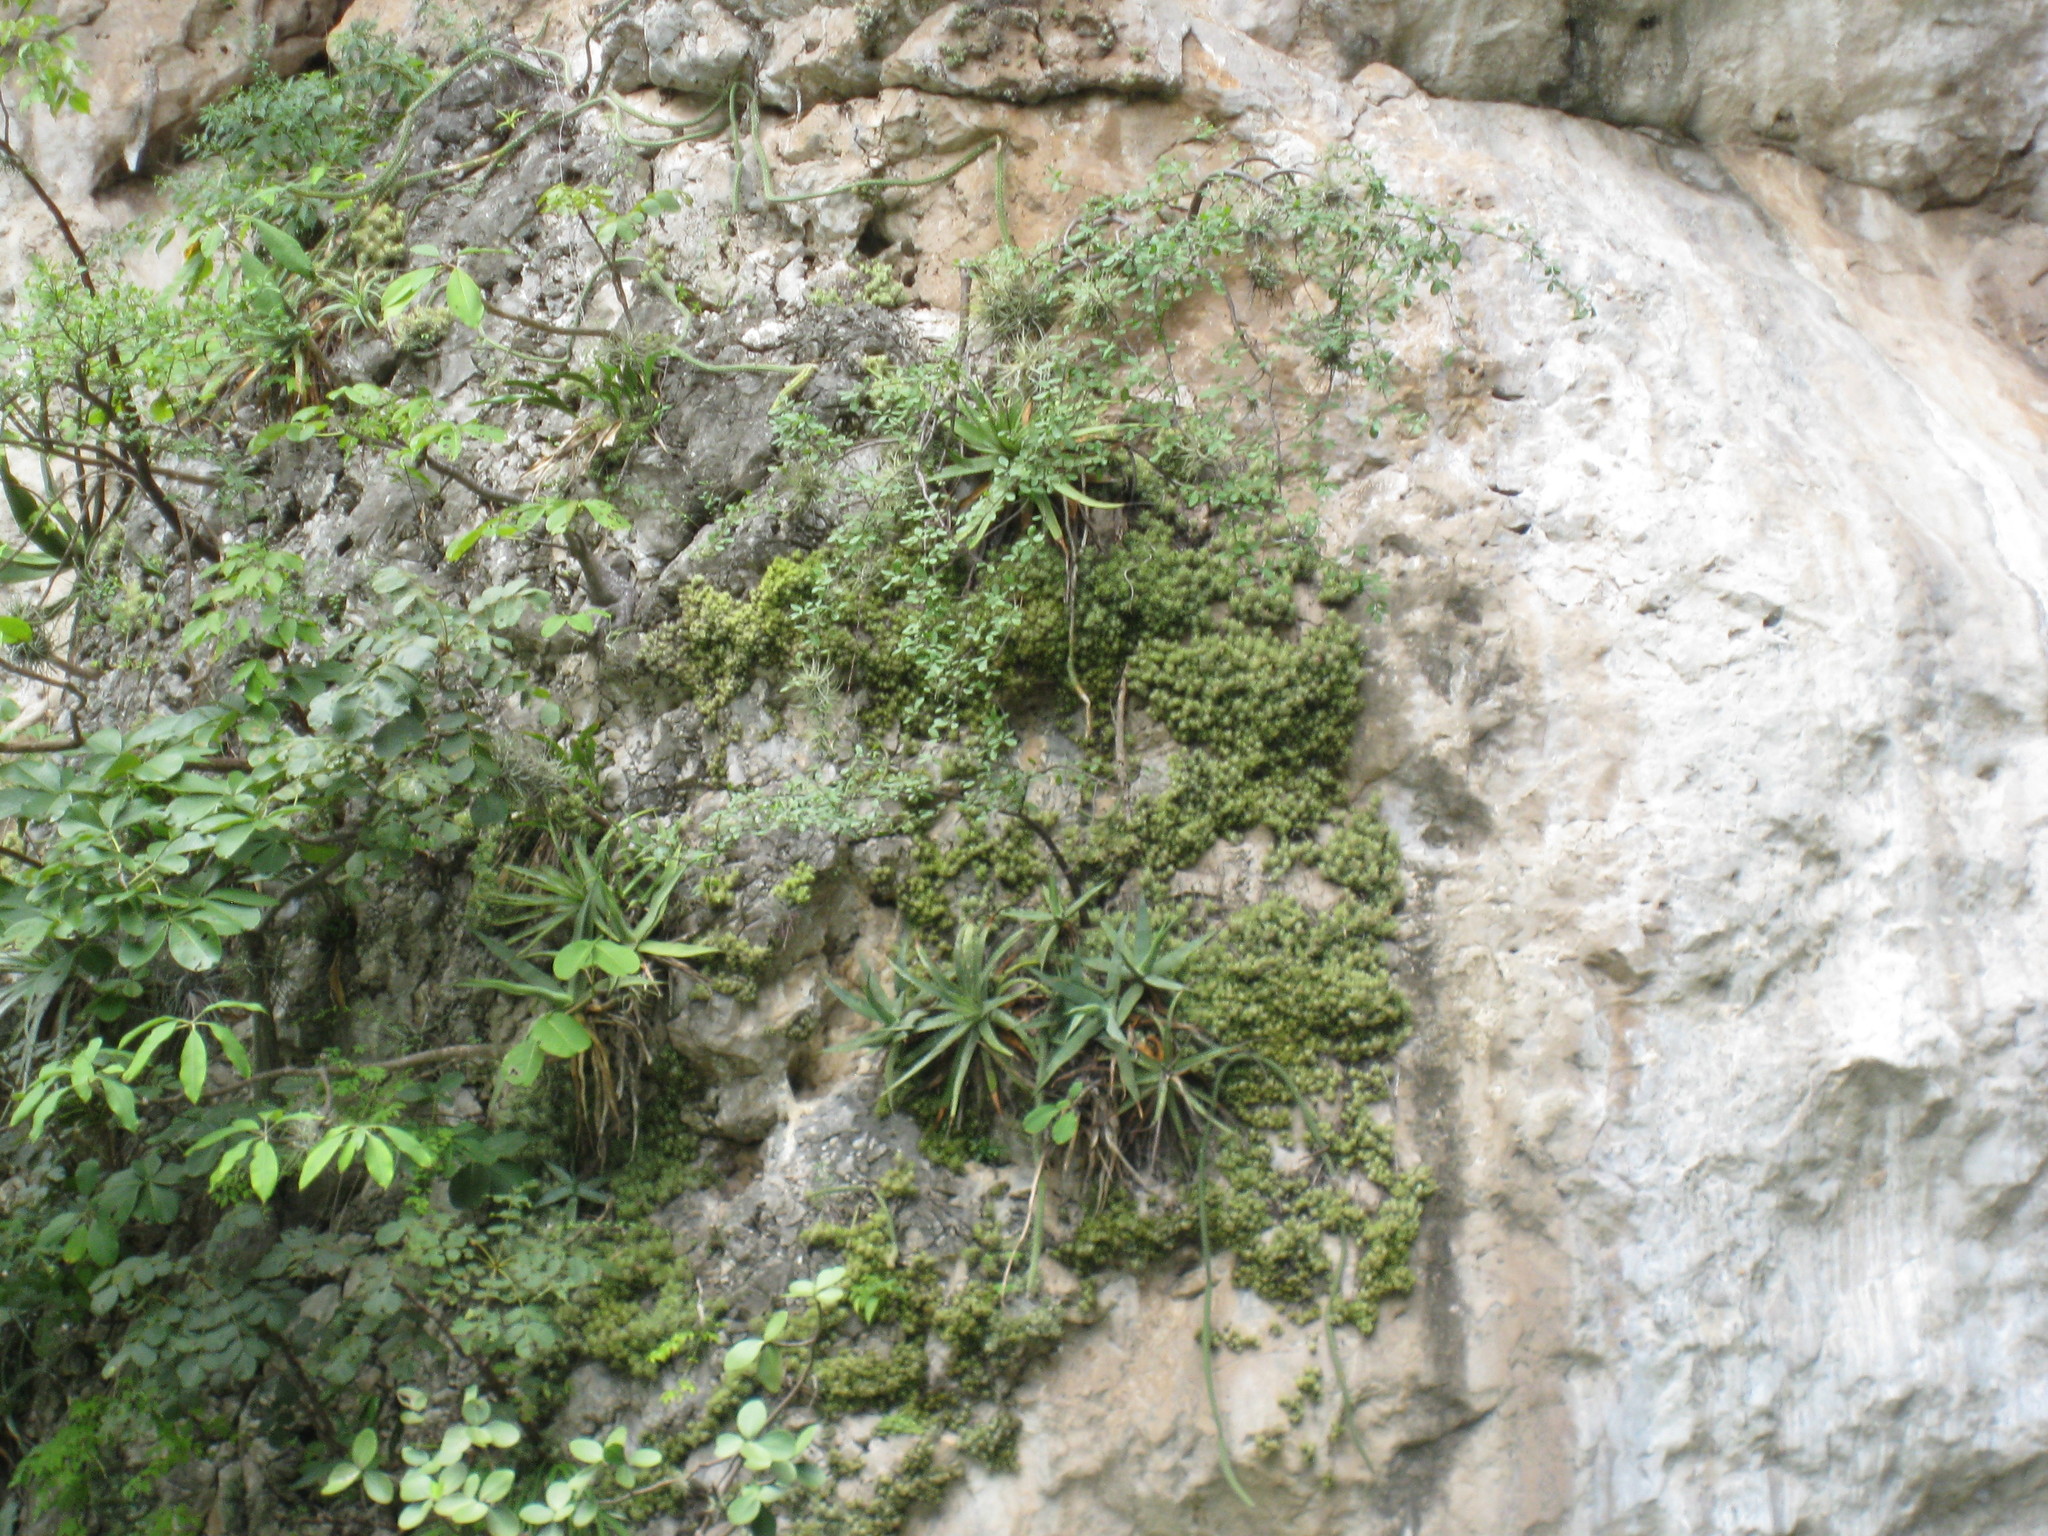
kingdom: Plantae
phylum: Tracheophyta
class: Liliopsida
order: Asparagales
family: Asparagaceae
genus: Agave
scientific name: Agave
